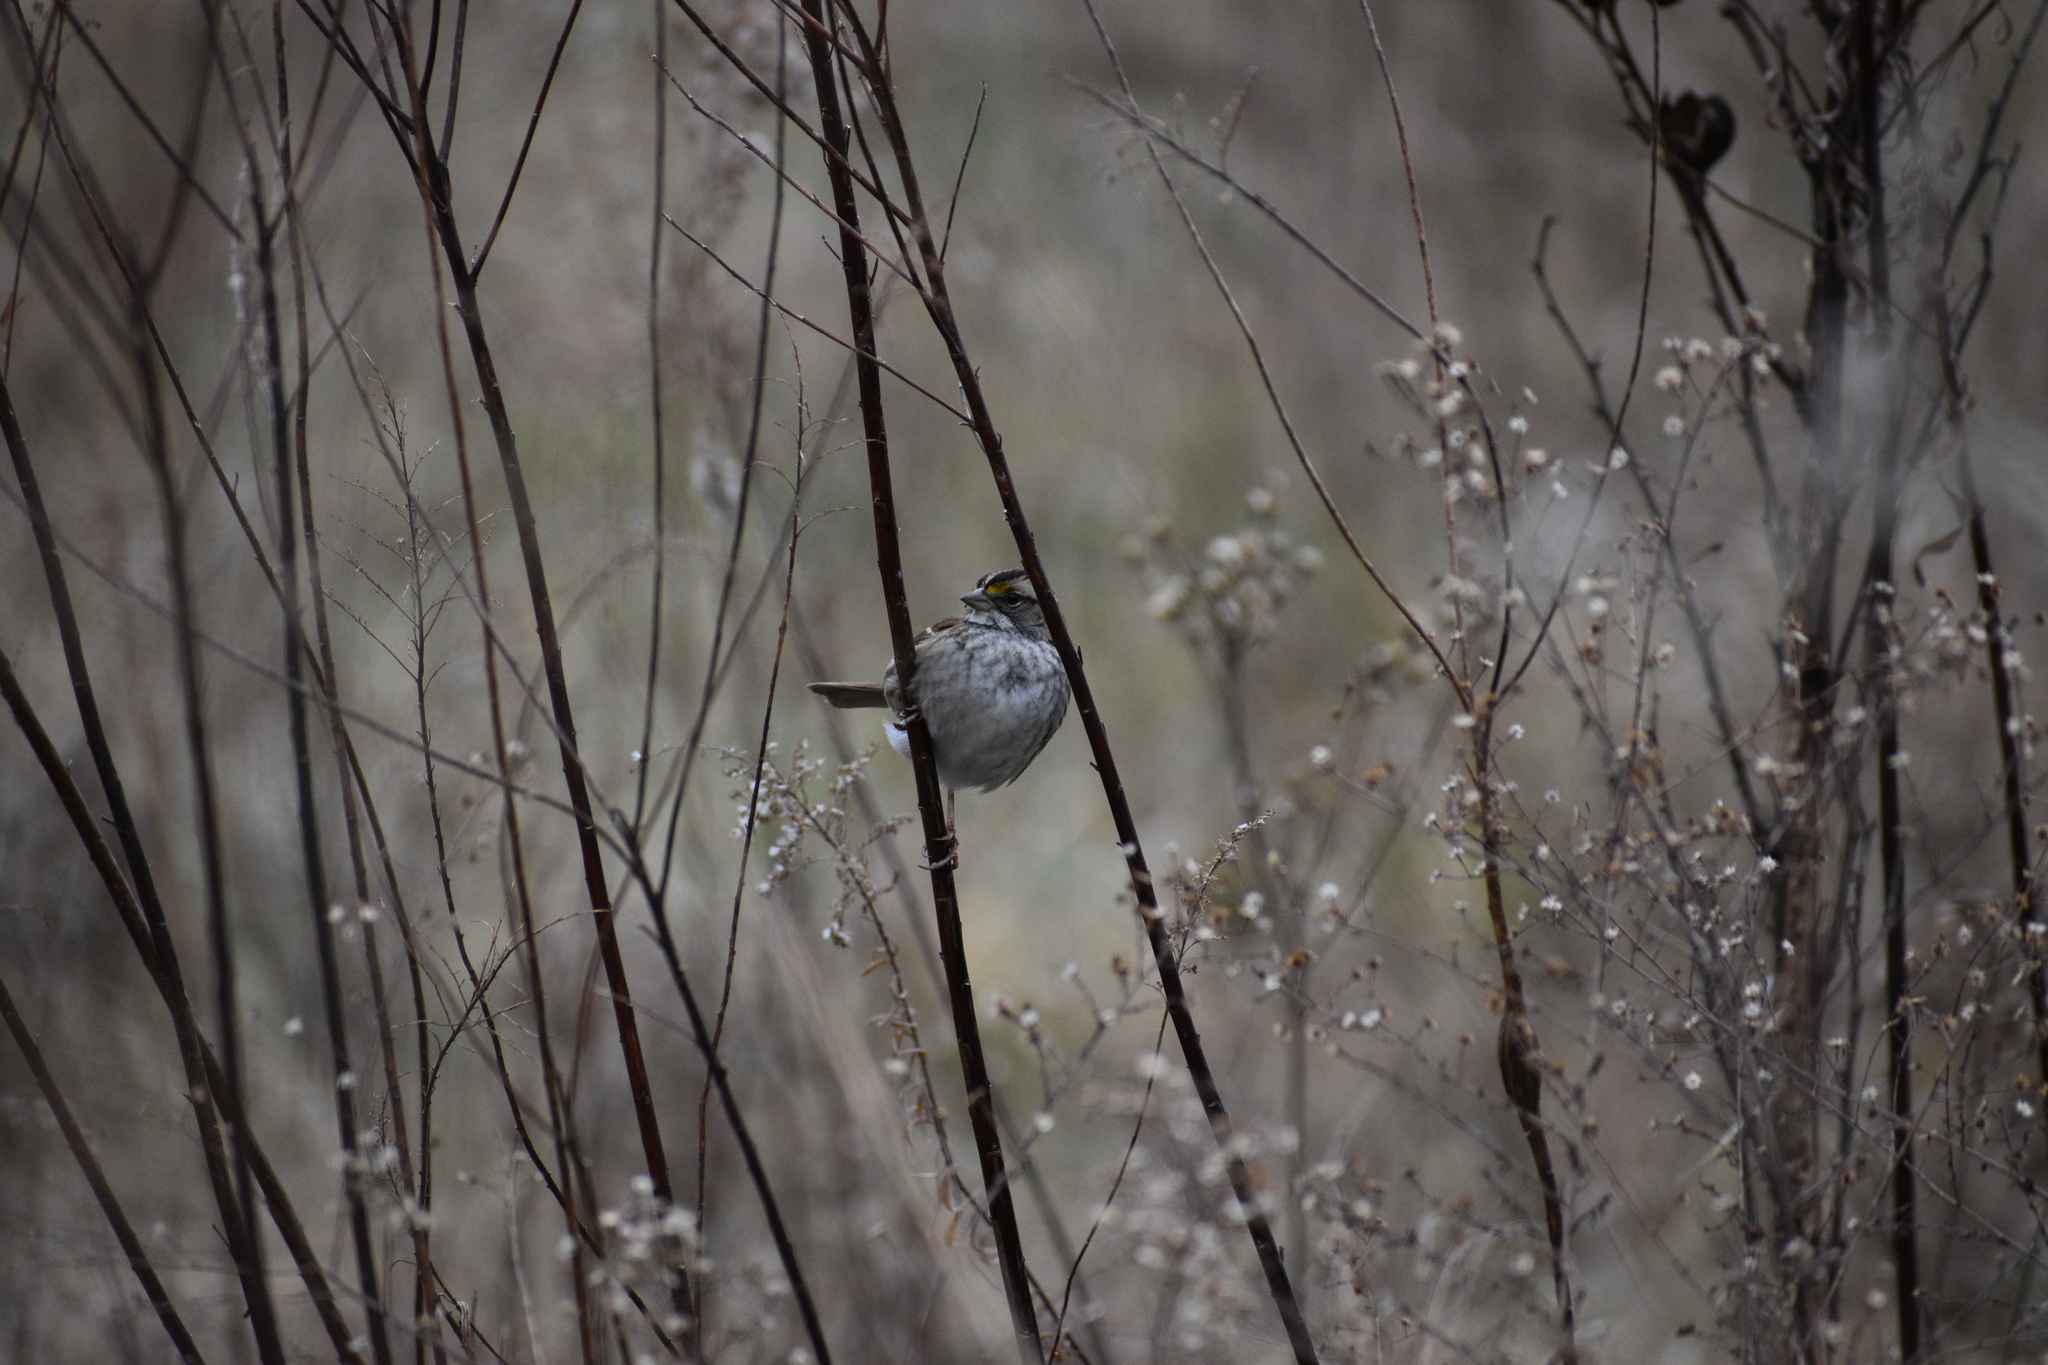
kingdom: Animalia
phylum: Chordata
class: Aves
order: Passeriformes
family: Passerellidae
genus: Zonotrichia
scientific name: Zonotrichia albicollis
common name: White-throated sparrow
